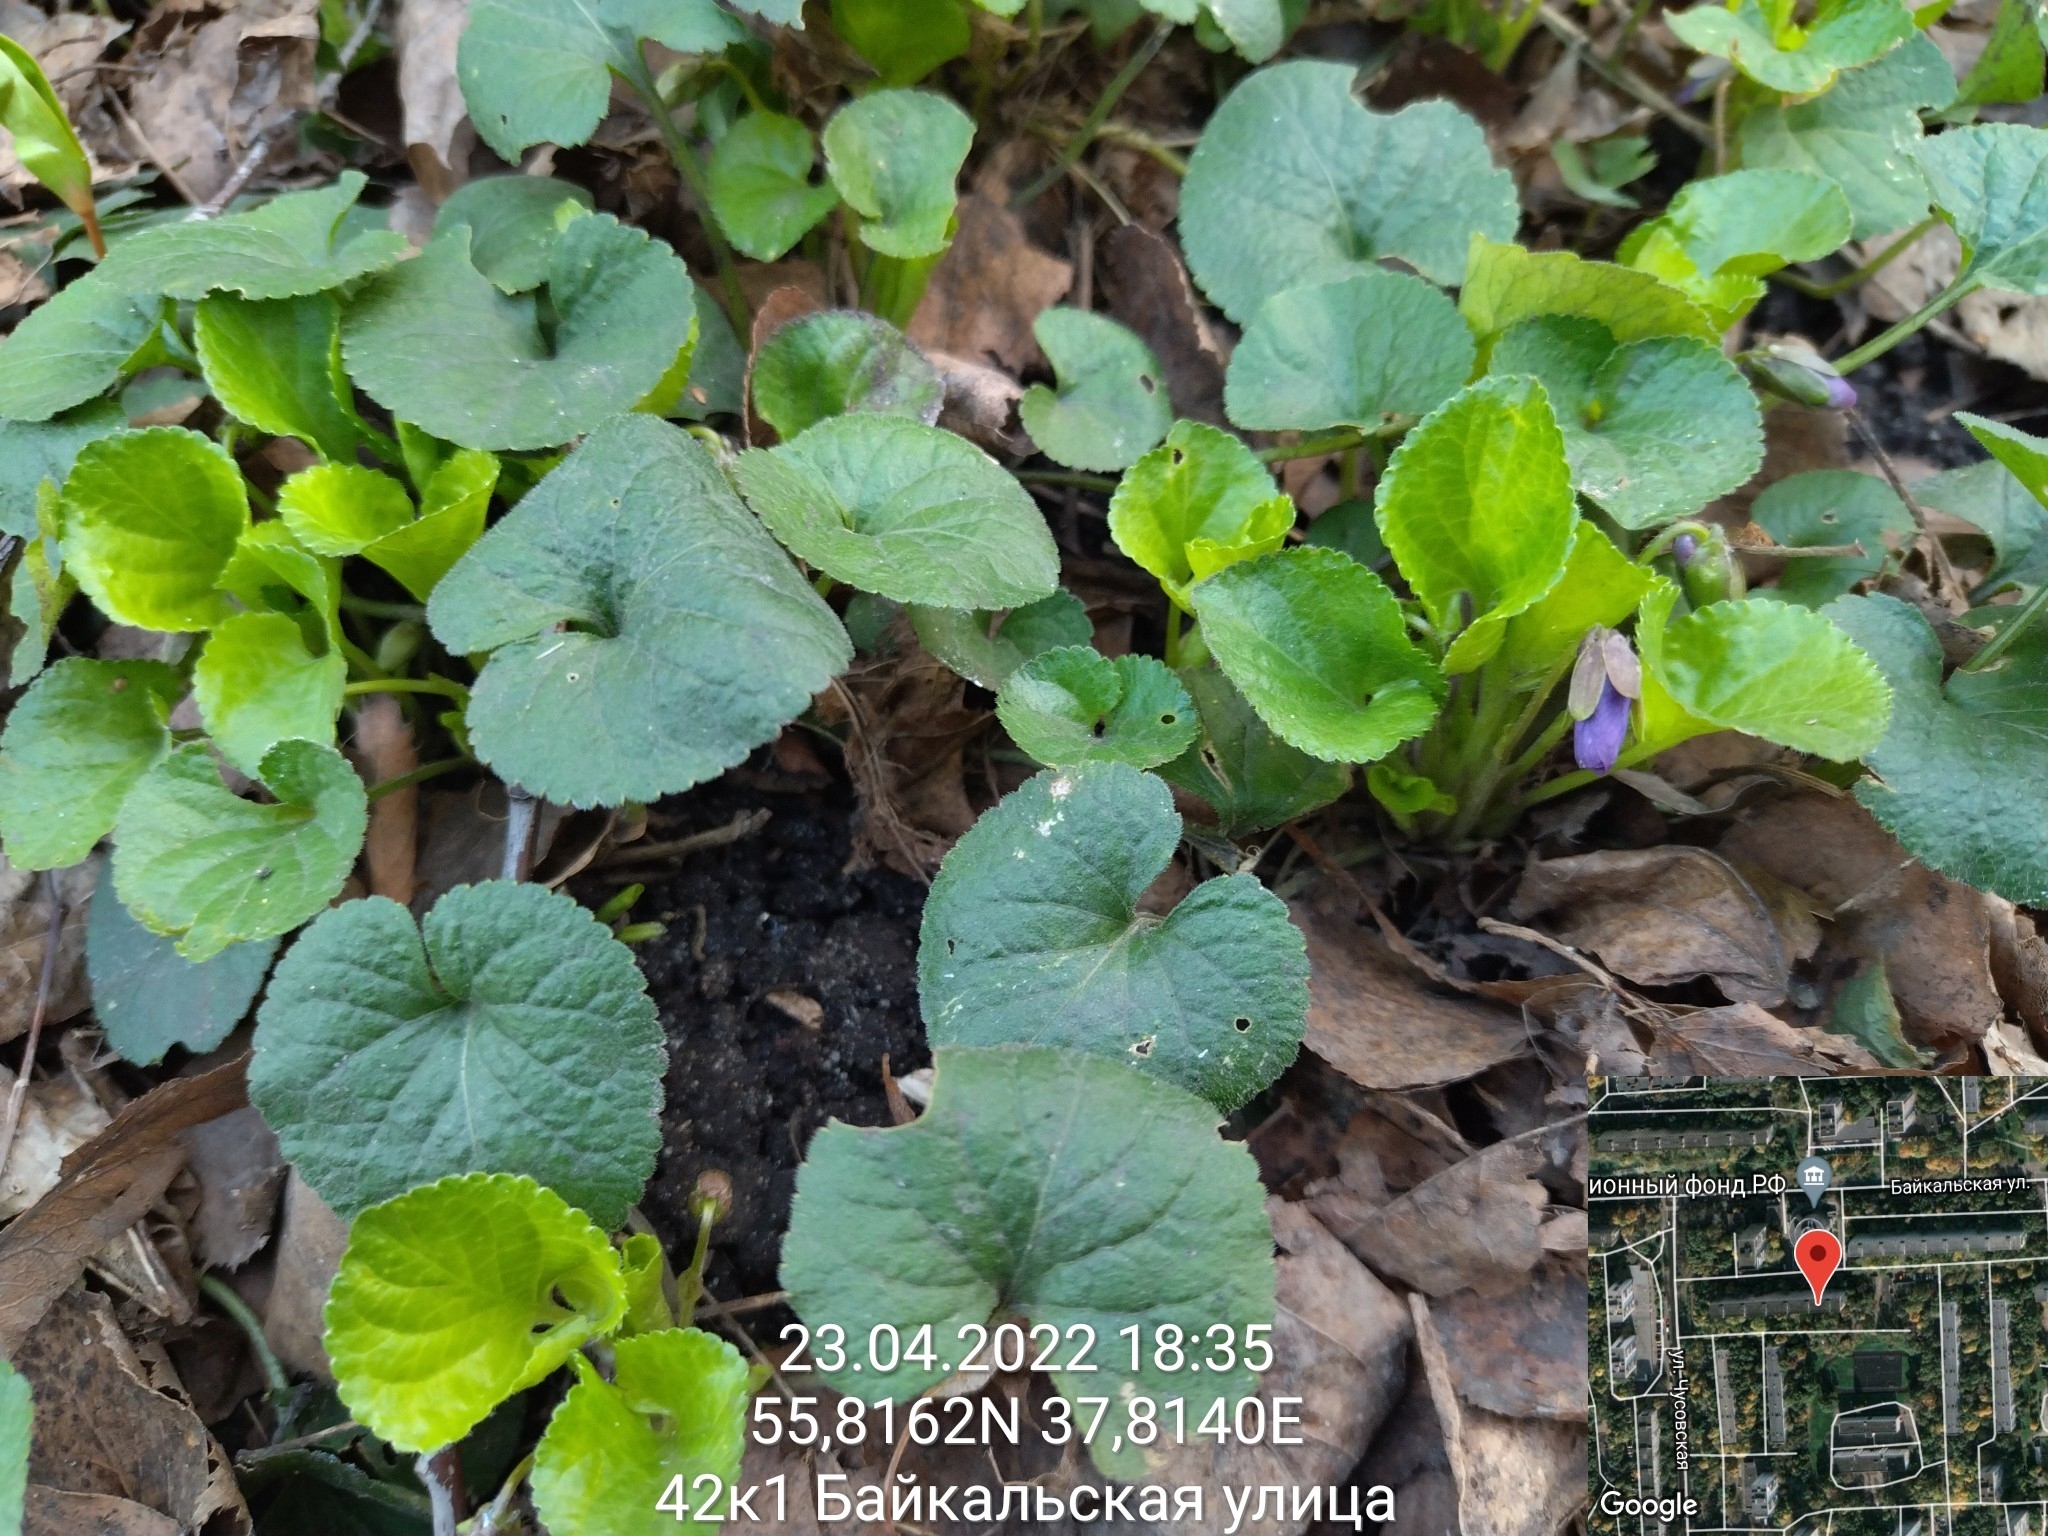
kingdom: Plantae
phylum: Tracheophyta
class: Magnoliopsida
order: Malpighiales
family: Violaceae
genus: Viola
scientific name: Viola odorata
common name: Sweet violet
